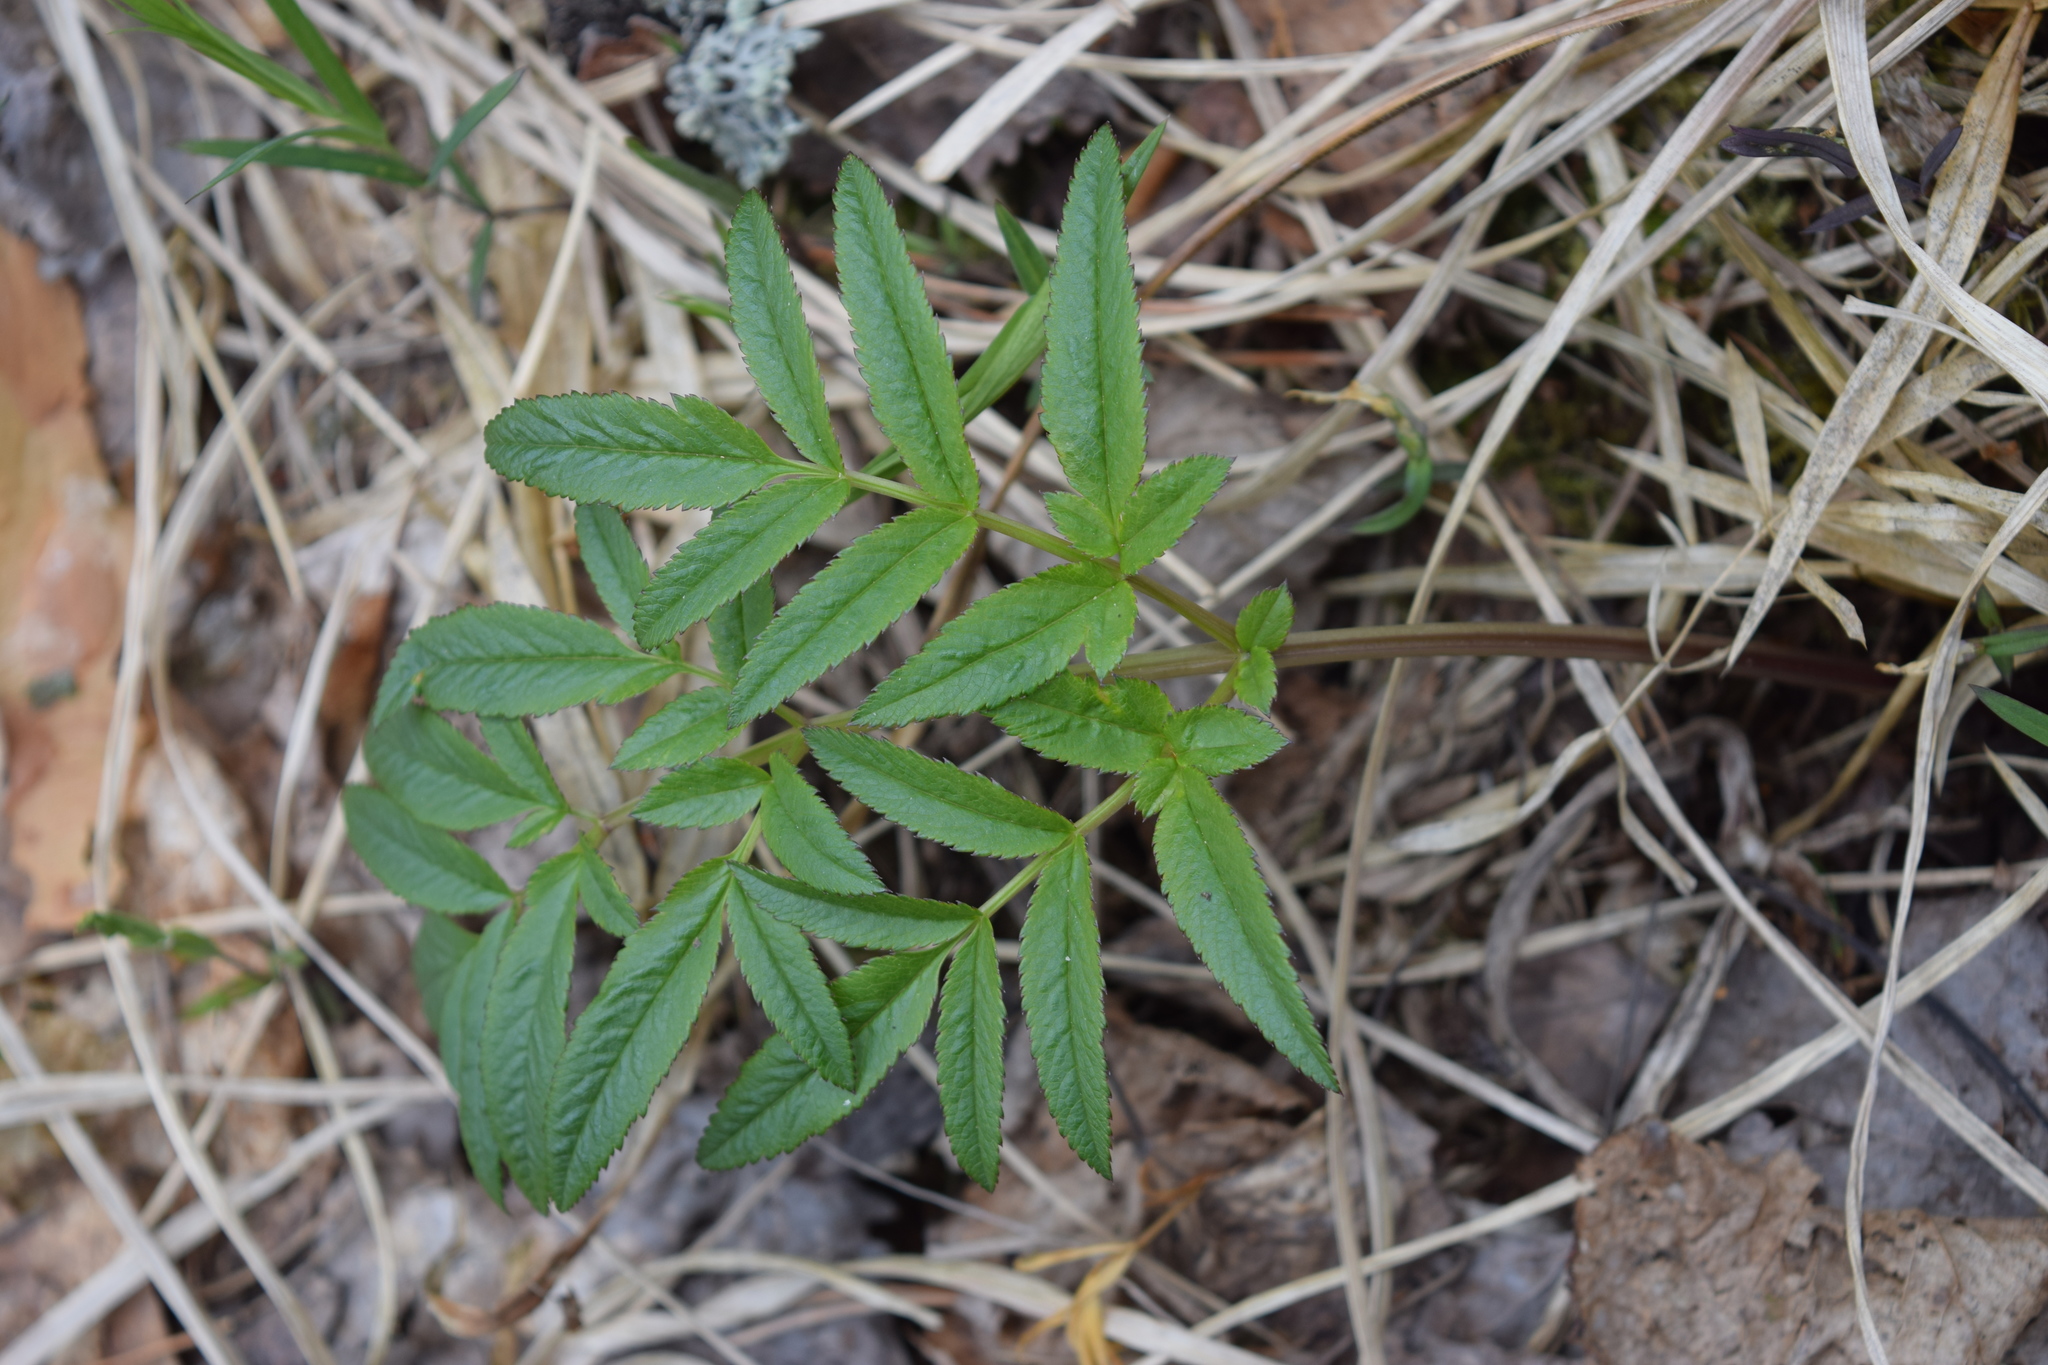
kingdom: Plantae
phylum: Tracheophyta
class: Magnoliopsida
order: Apiales
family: Apiaceae
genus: Angelica
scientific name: Angelica sylvestris
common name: Wild angelica
